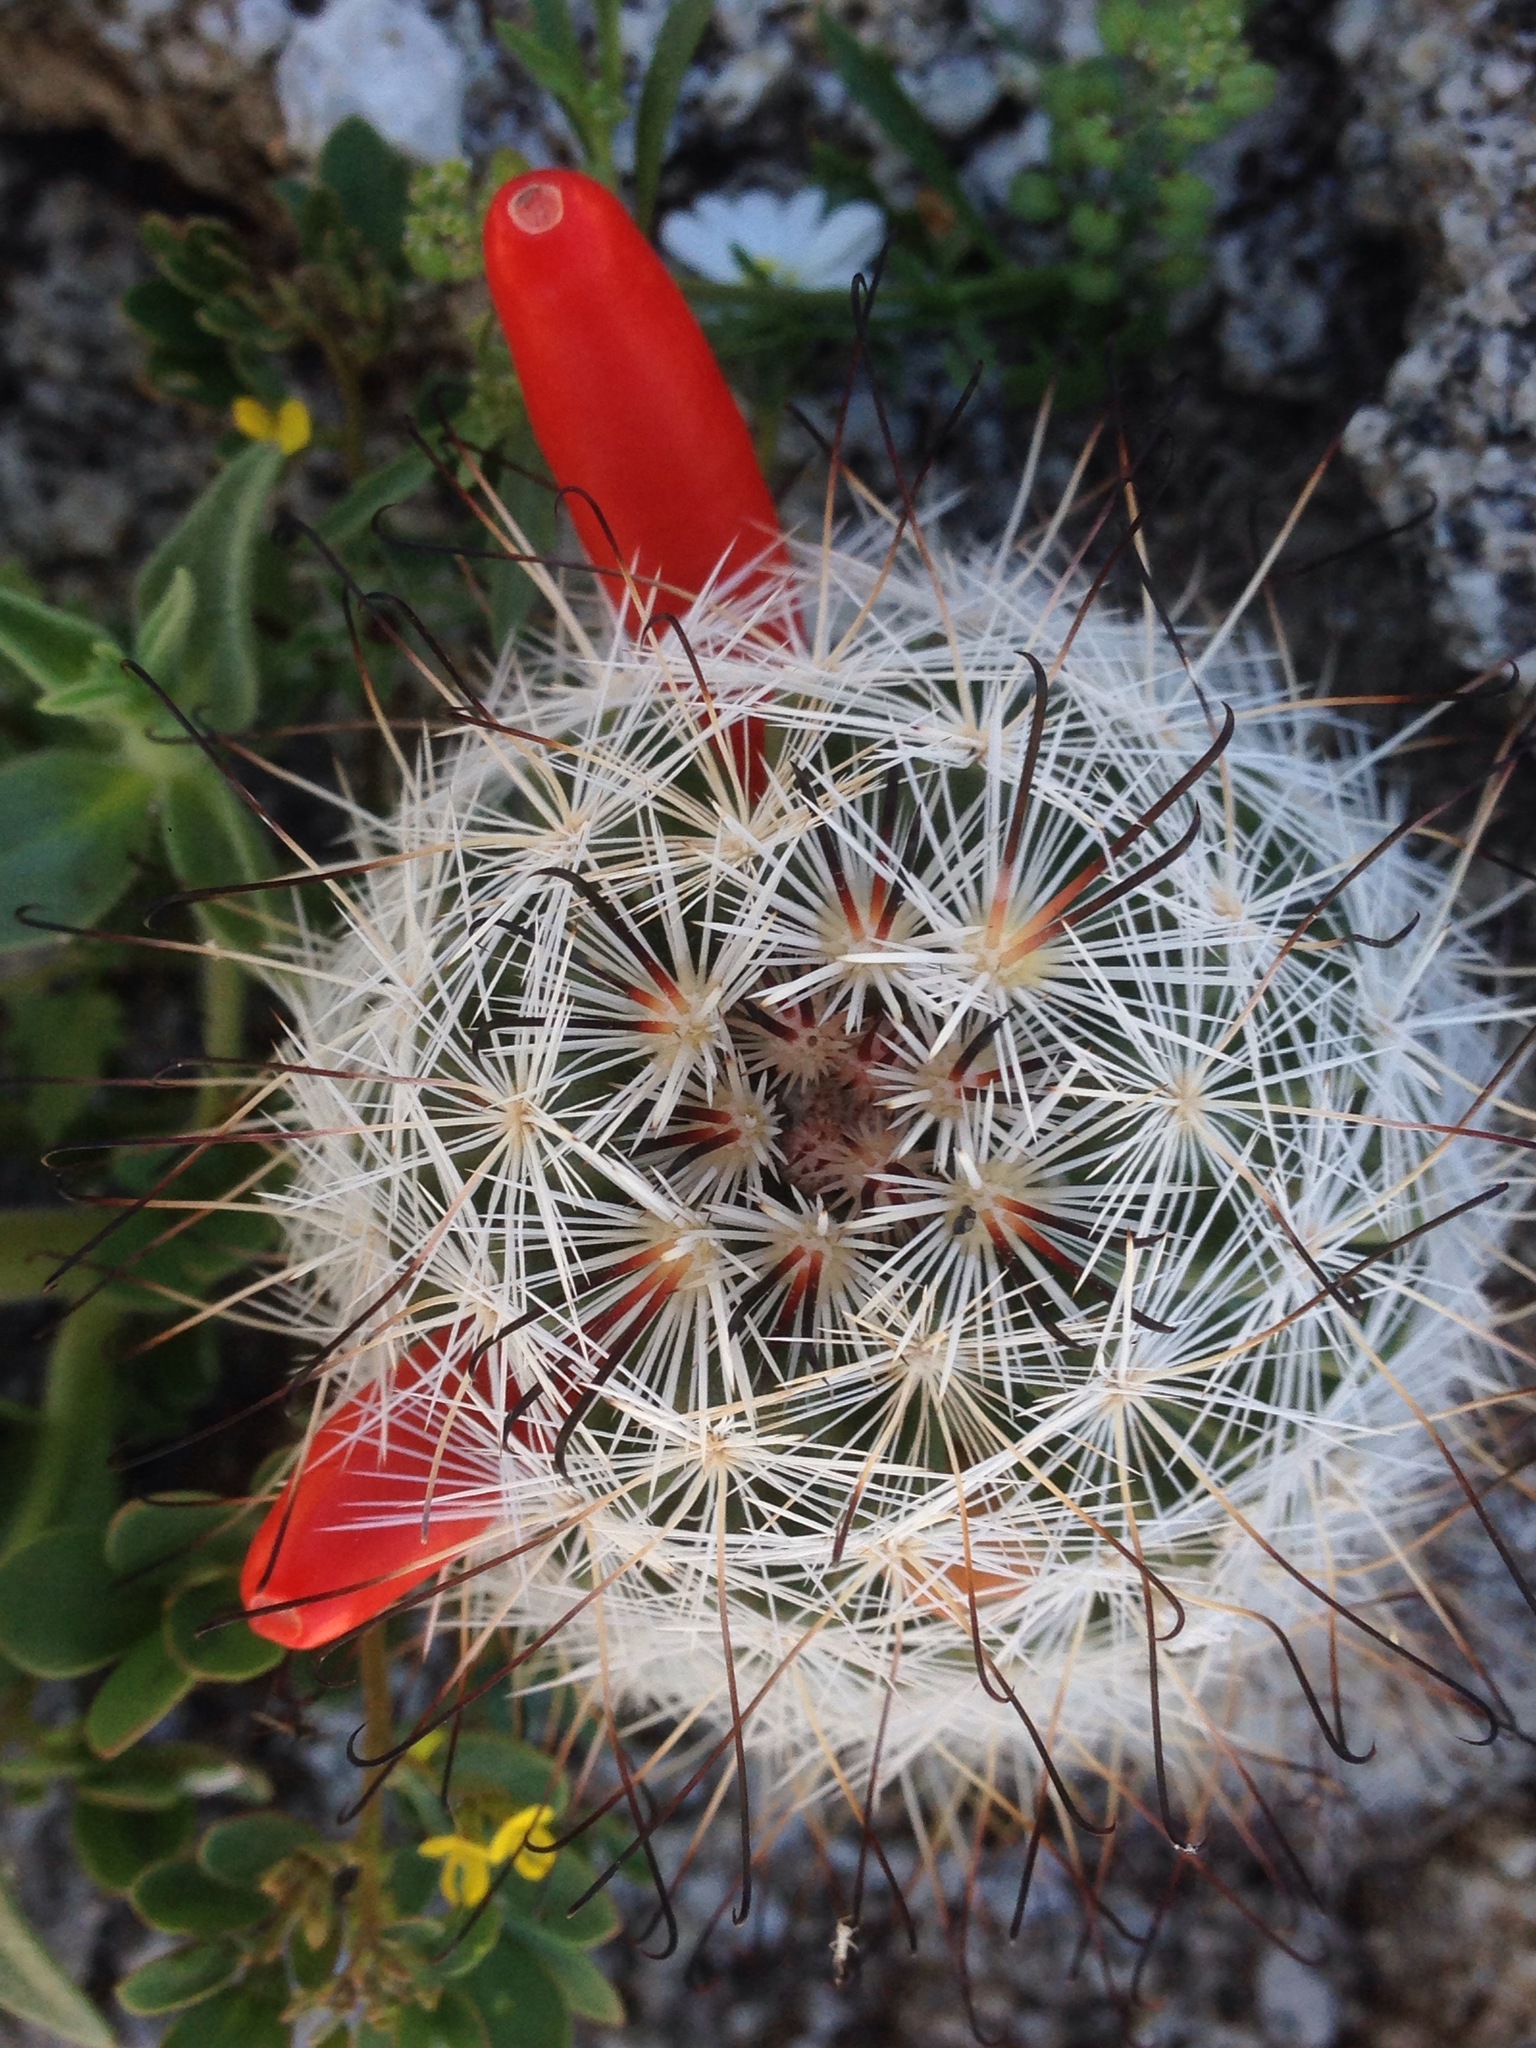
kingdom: Plantae
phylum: Tracheophyta
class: Magnoliopsida
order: Caryophyllales
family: Cactaceae
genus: Cochemiea
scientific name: Cochemiea tetrancistra
